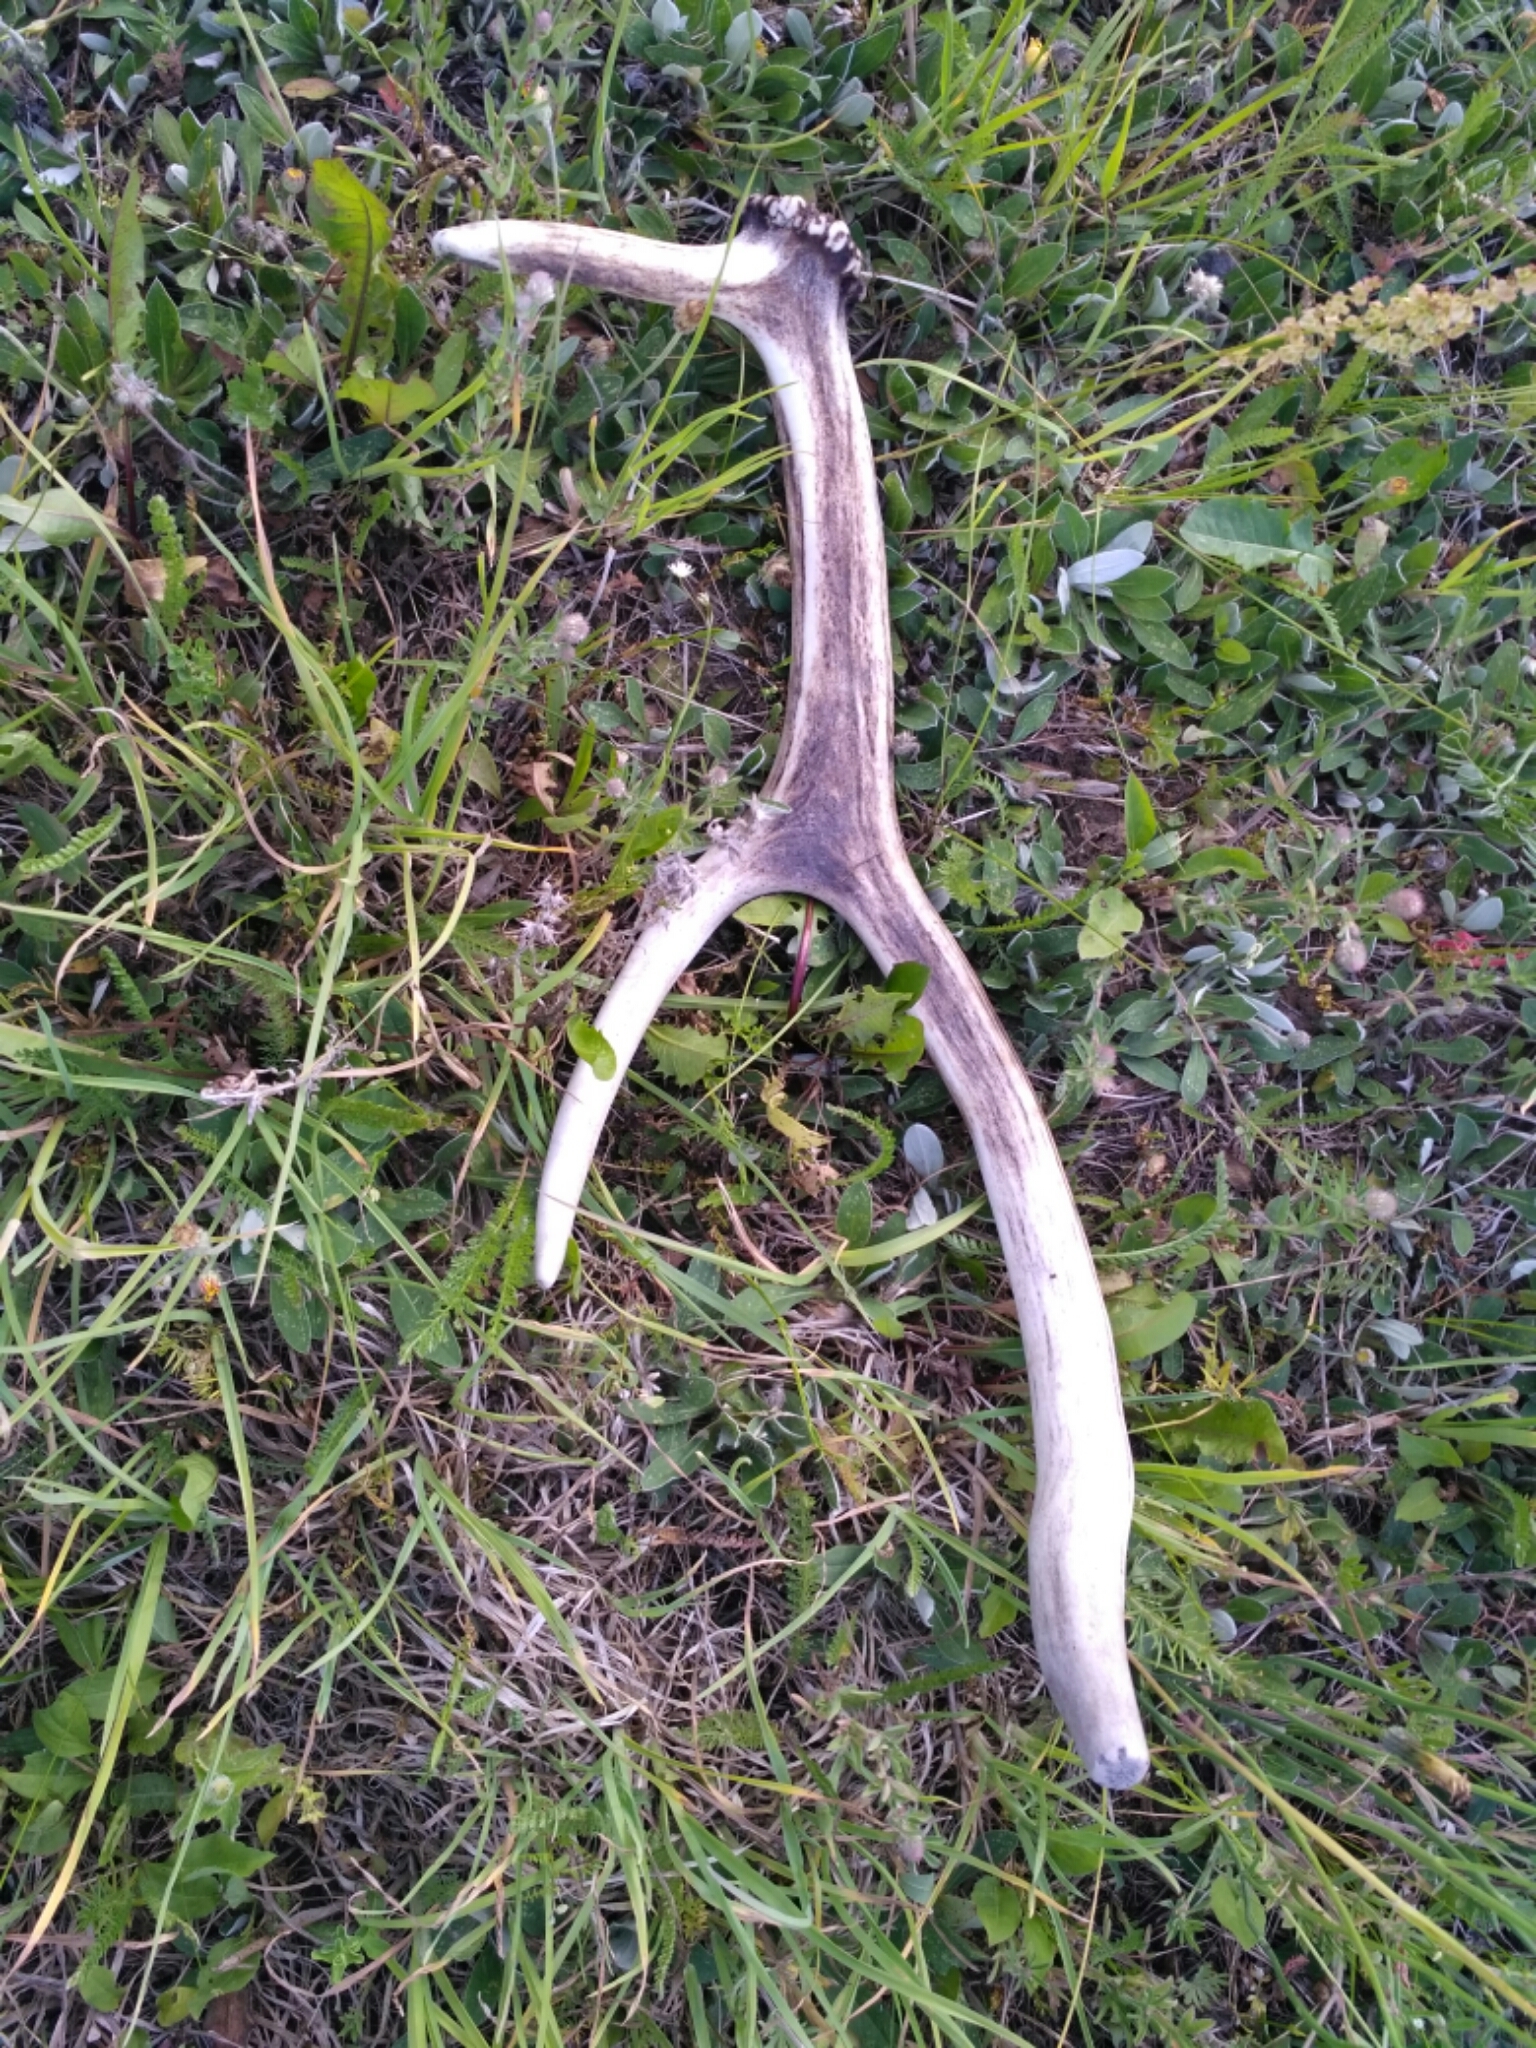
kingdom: Animalia
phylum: Chordata
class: Mammalia
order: Artiodactyla
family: Cervidae
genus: Cervus
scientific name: Cervus elaphus
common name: Red deer
